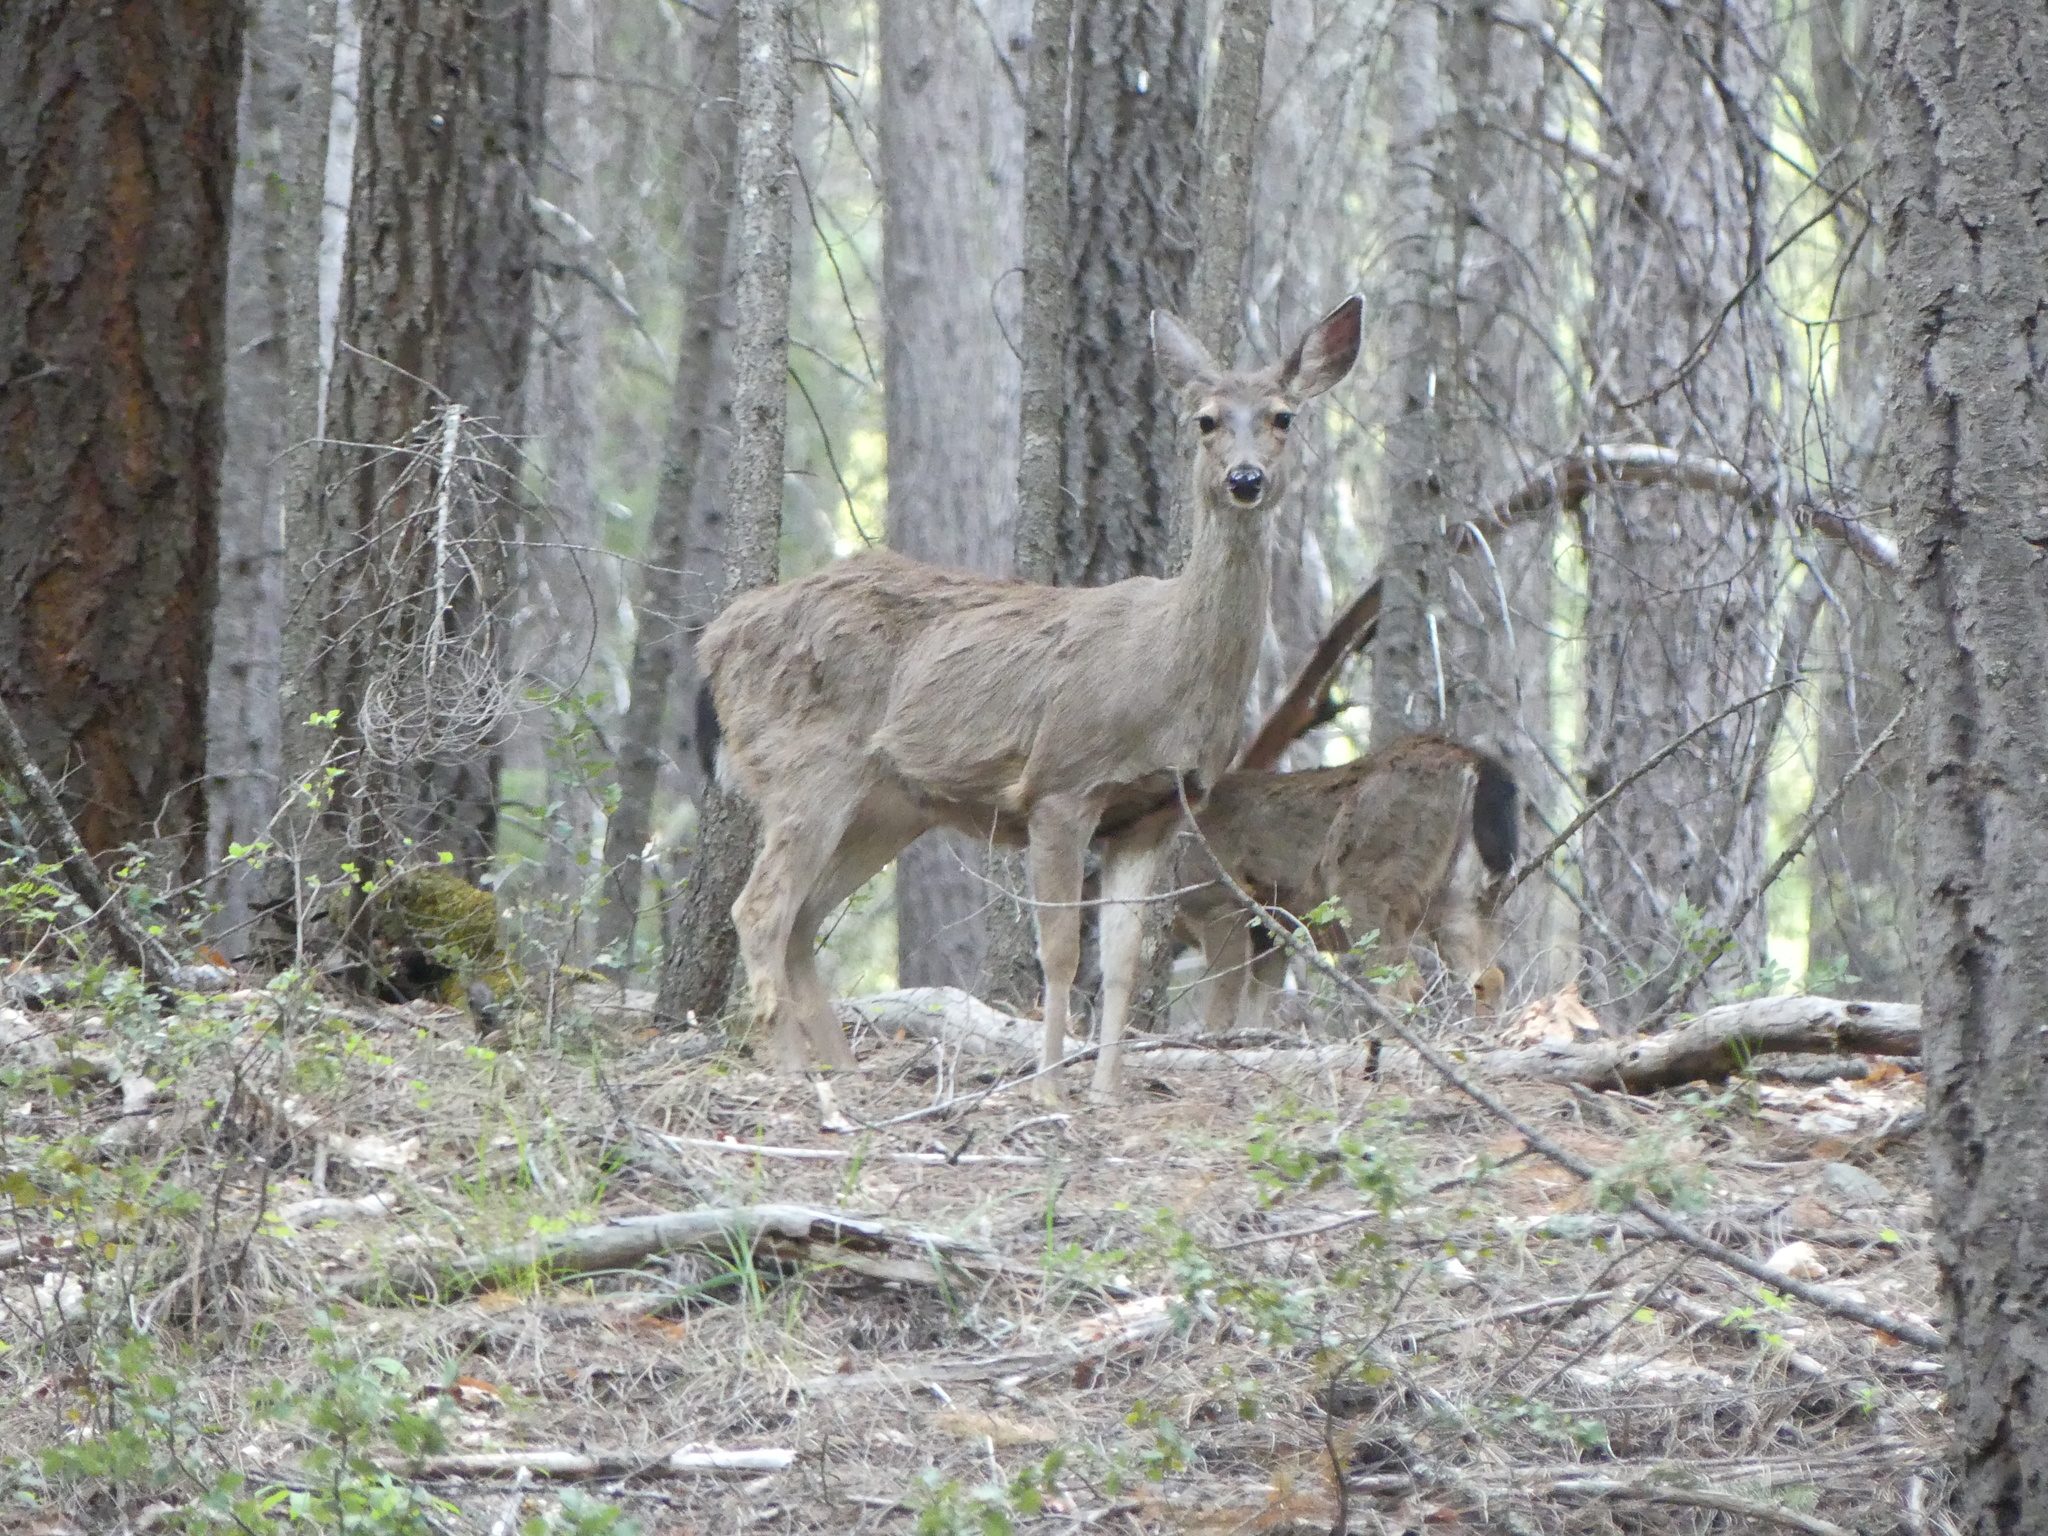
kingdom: Animalia
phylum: Chordata
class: Mammalia
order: Artiodactyla
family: Cervidae
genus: Odocoileus
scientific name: Odocoileus hemionus
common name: Mule deer
